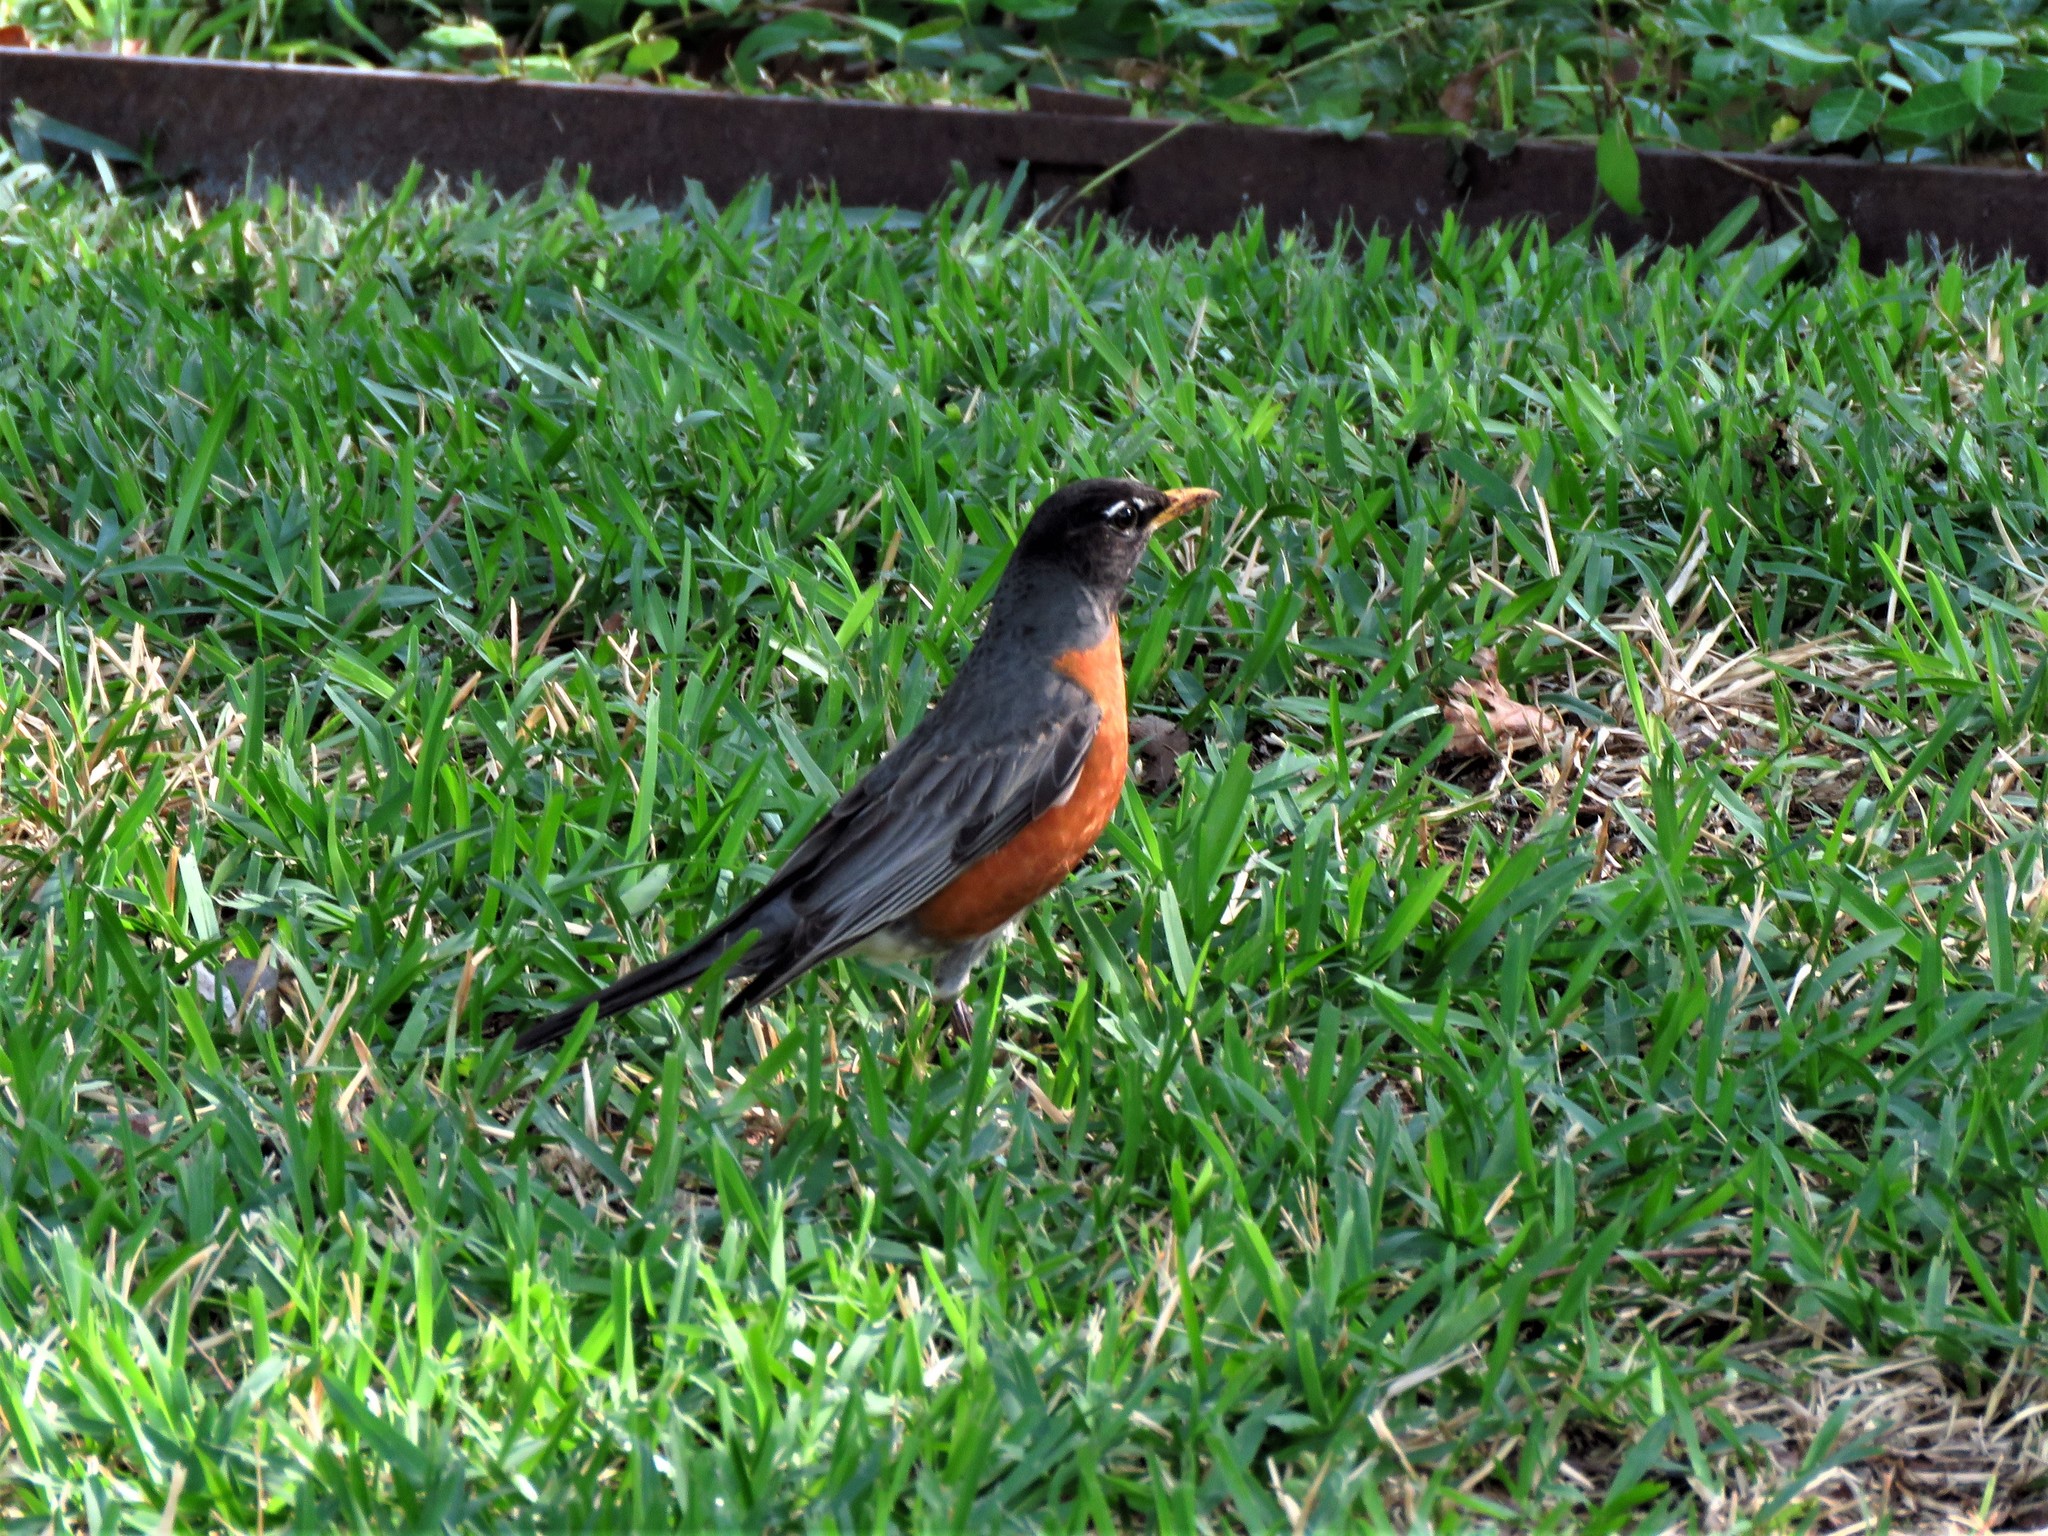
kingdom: Animalia
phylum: Chordata
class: Aves
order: Passeriformes
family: Turdidae
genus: Turdus
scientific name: Turdus migratorius
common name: American robin
